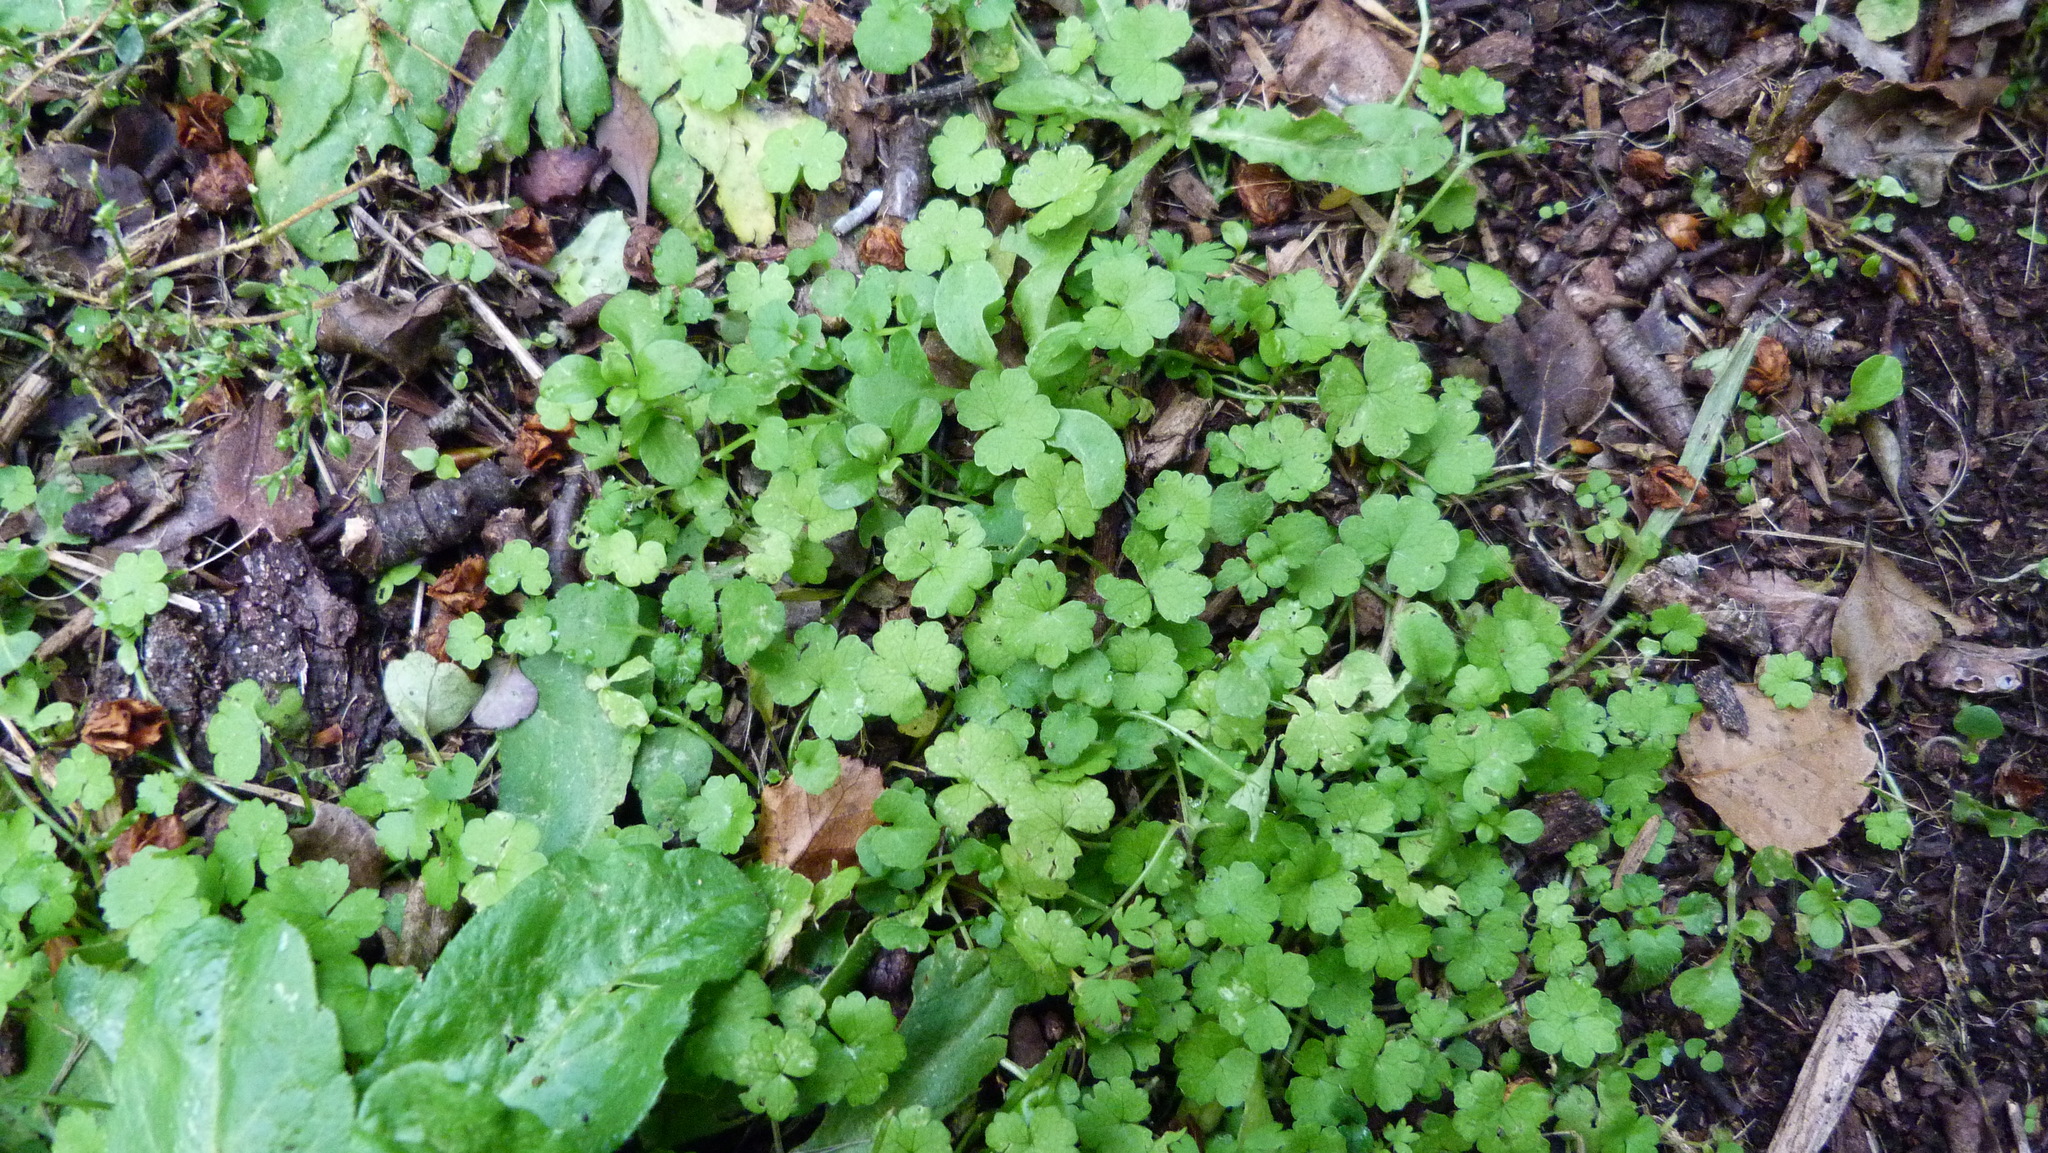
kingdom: Plantae
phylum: Tracheophyta
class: Magnoliopsida
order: Apiales
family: Araliaceae
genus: Hydrocotyle
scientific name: Hydrocotyle heteromeria
